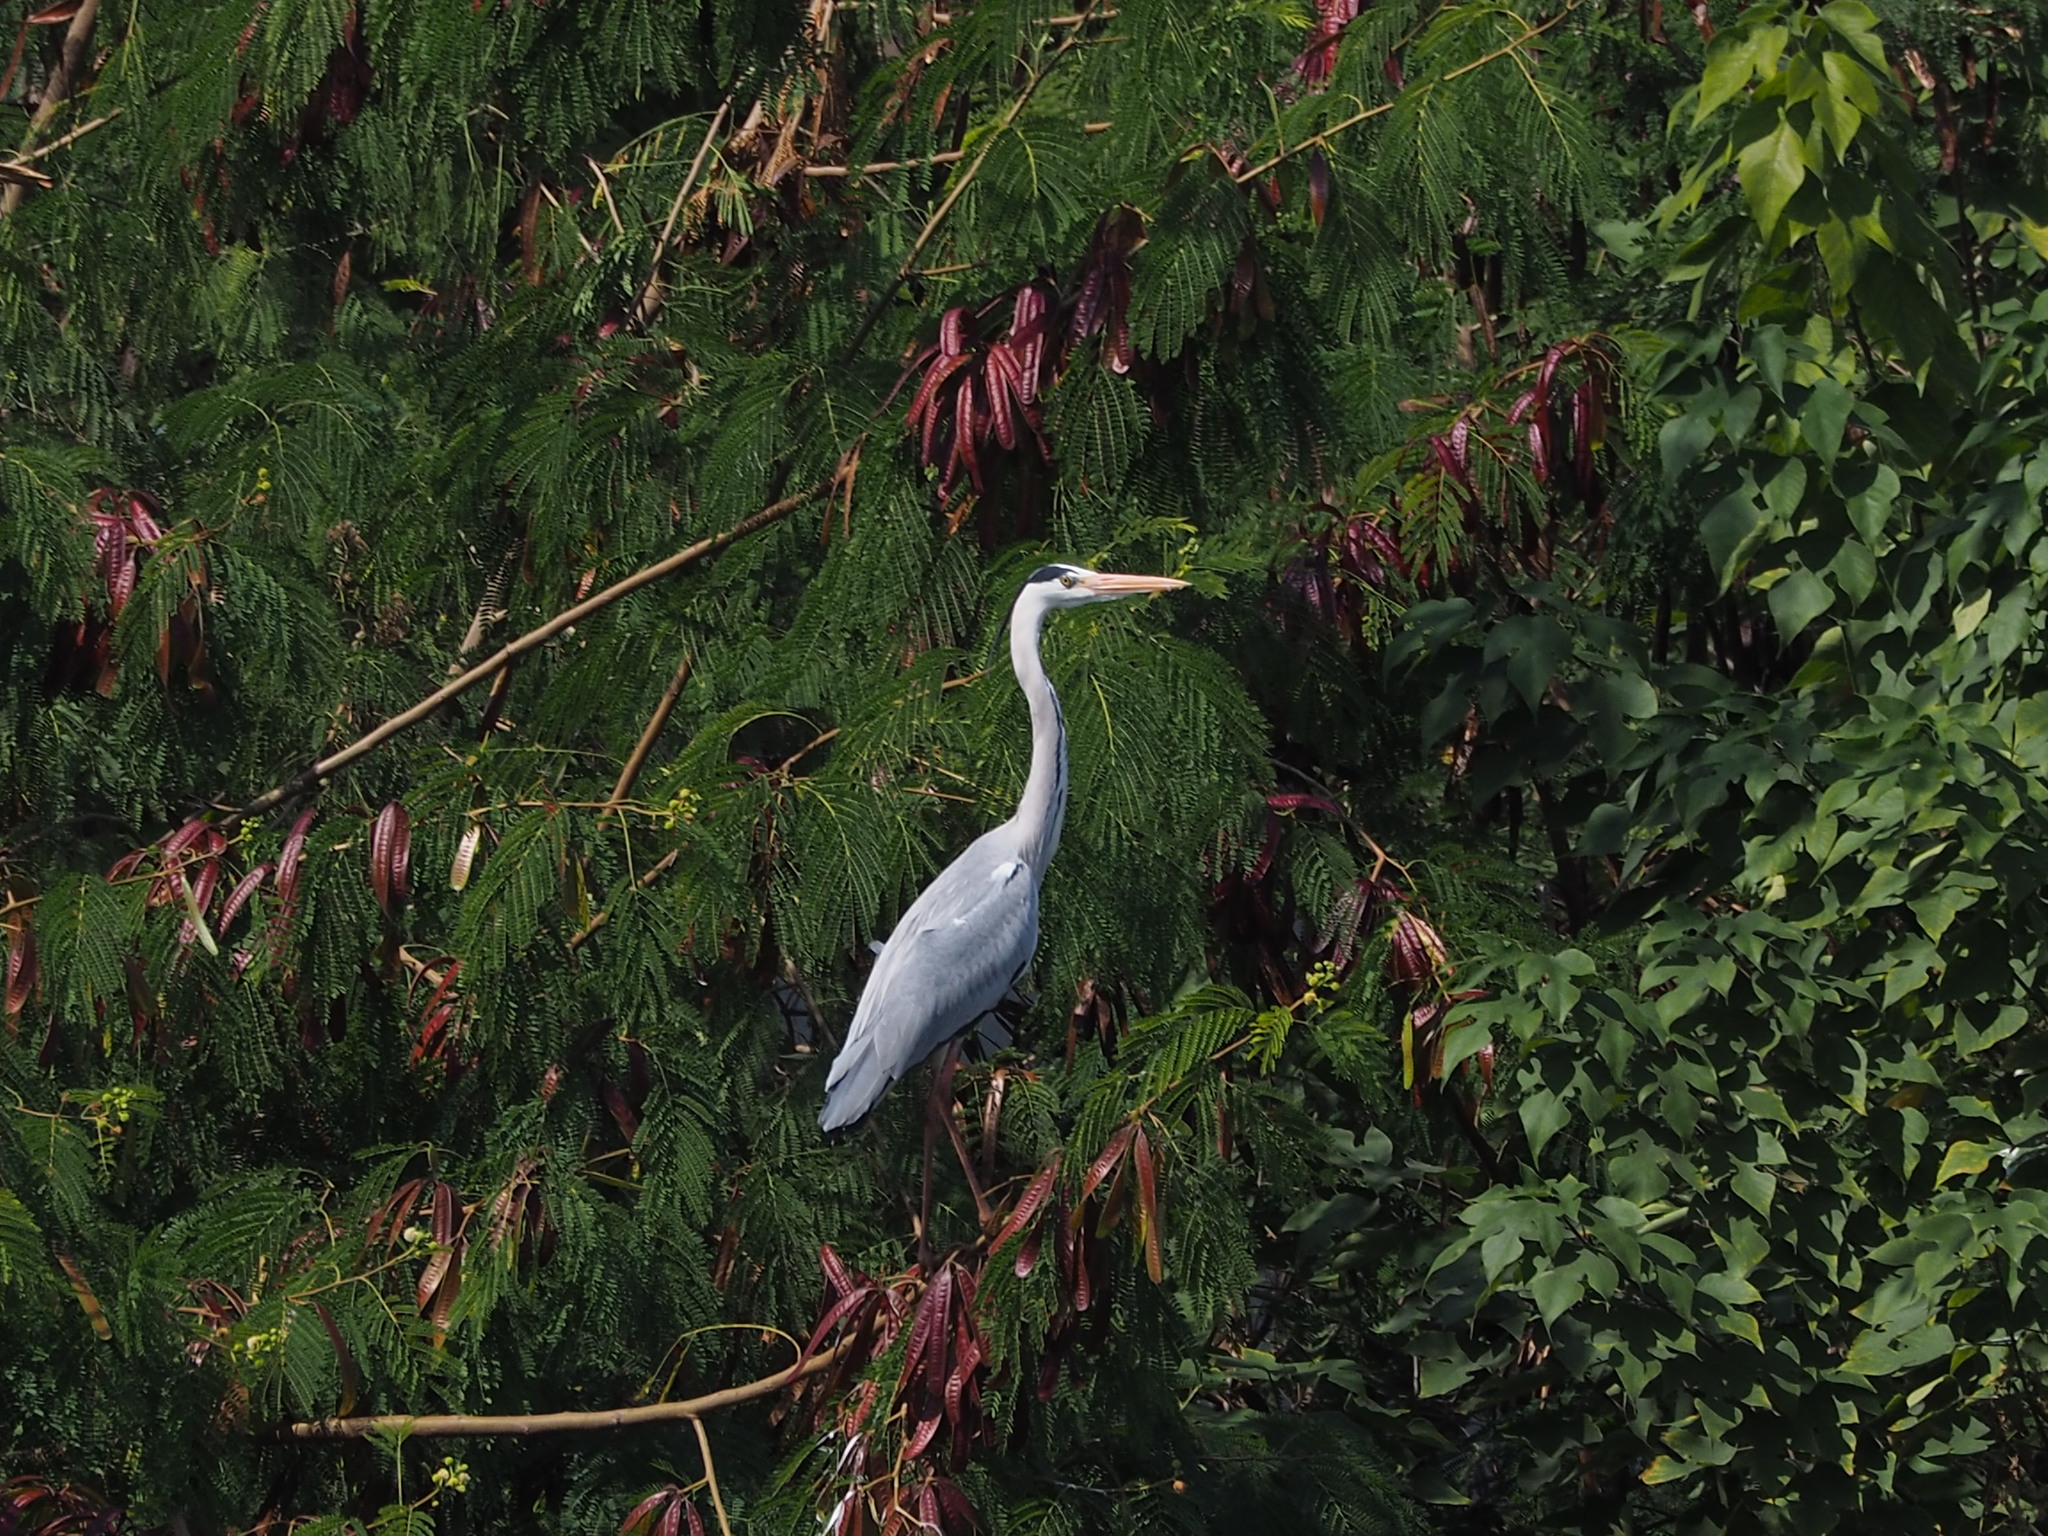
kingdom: Animalia
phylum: Chordata
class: Aves
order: Pelecaniformes
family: Ardeidae
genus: Ardea
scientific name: Ardea cinerea
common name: Grey heron
